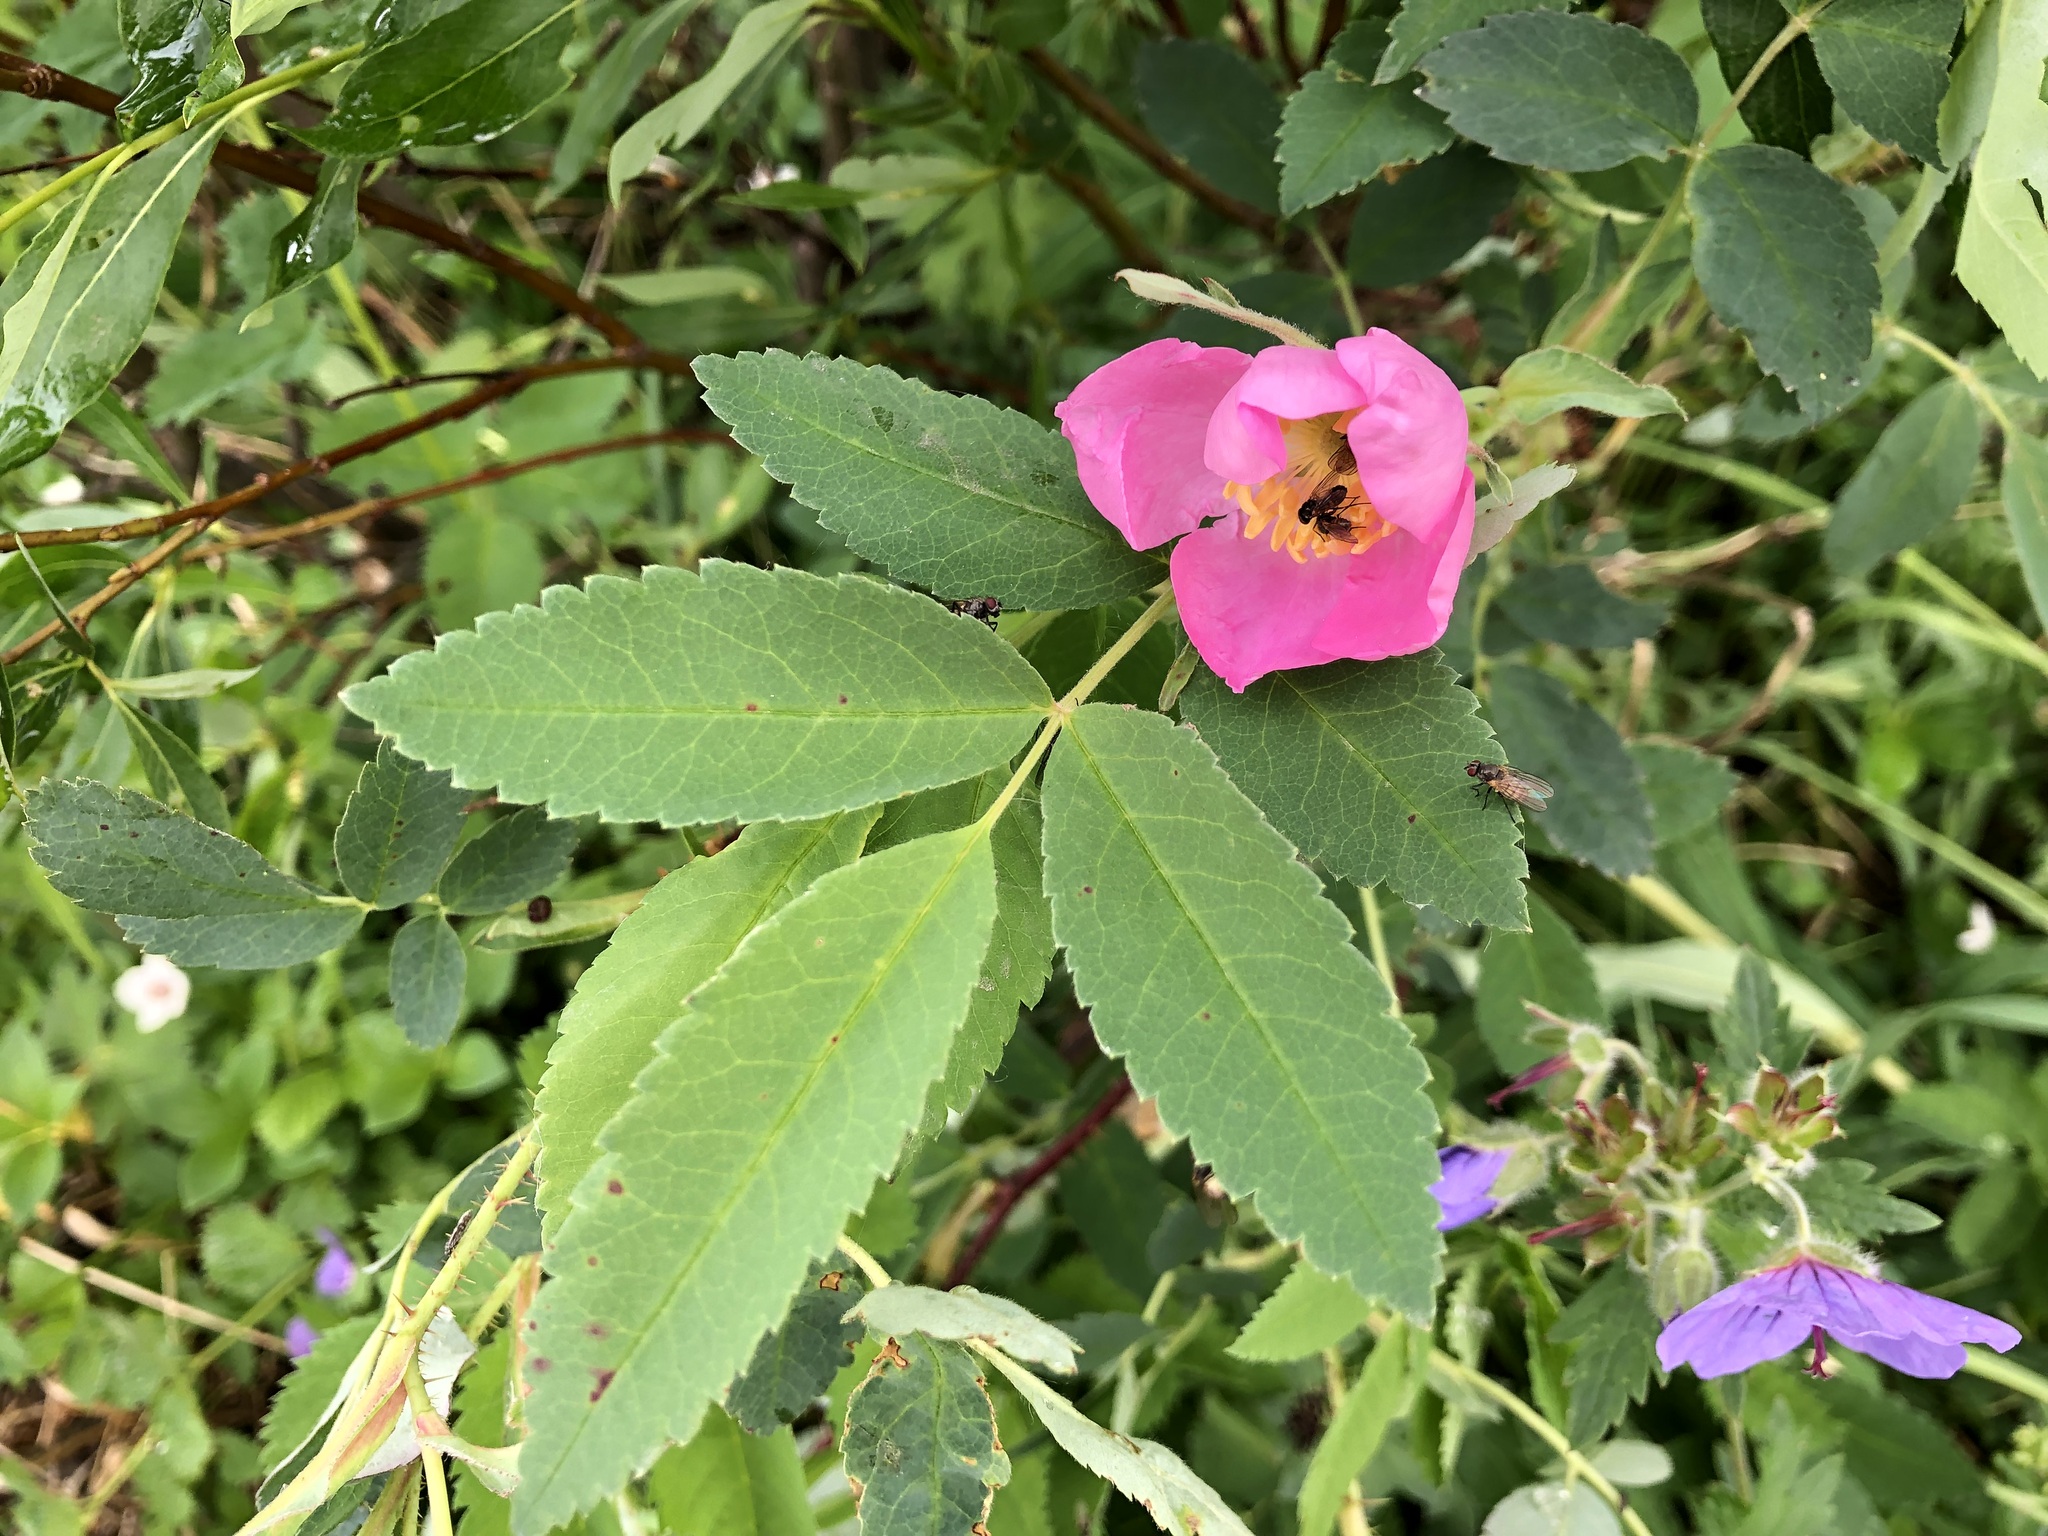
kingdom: Plantae
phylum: Tracheophyta
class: Magnoliopsida
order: Rosales
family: Rosaceae
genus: Rosa
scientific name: Rosa acicularis
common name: Prickly rose
